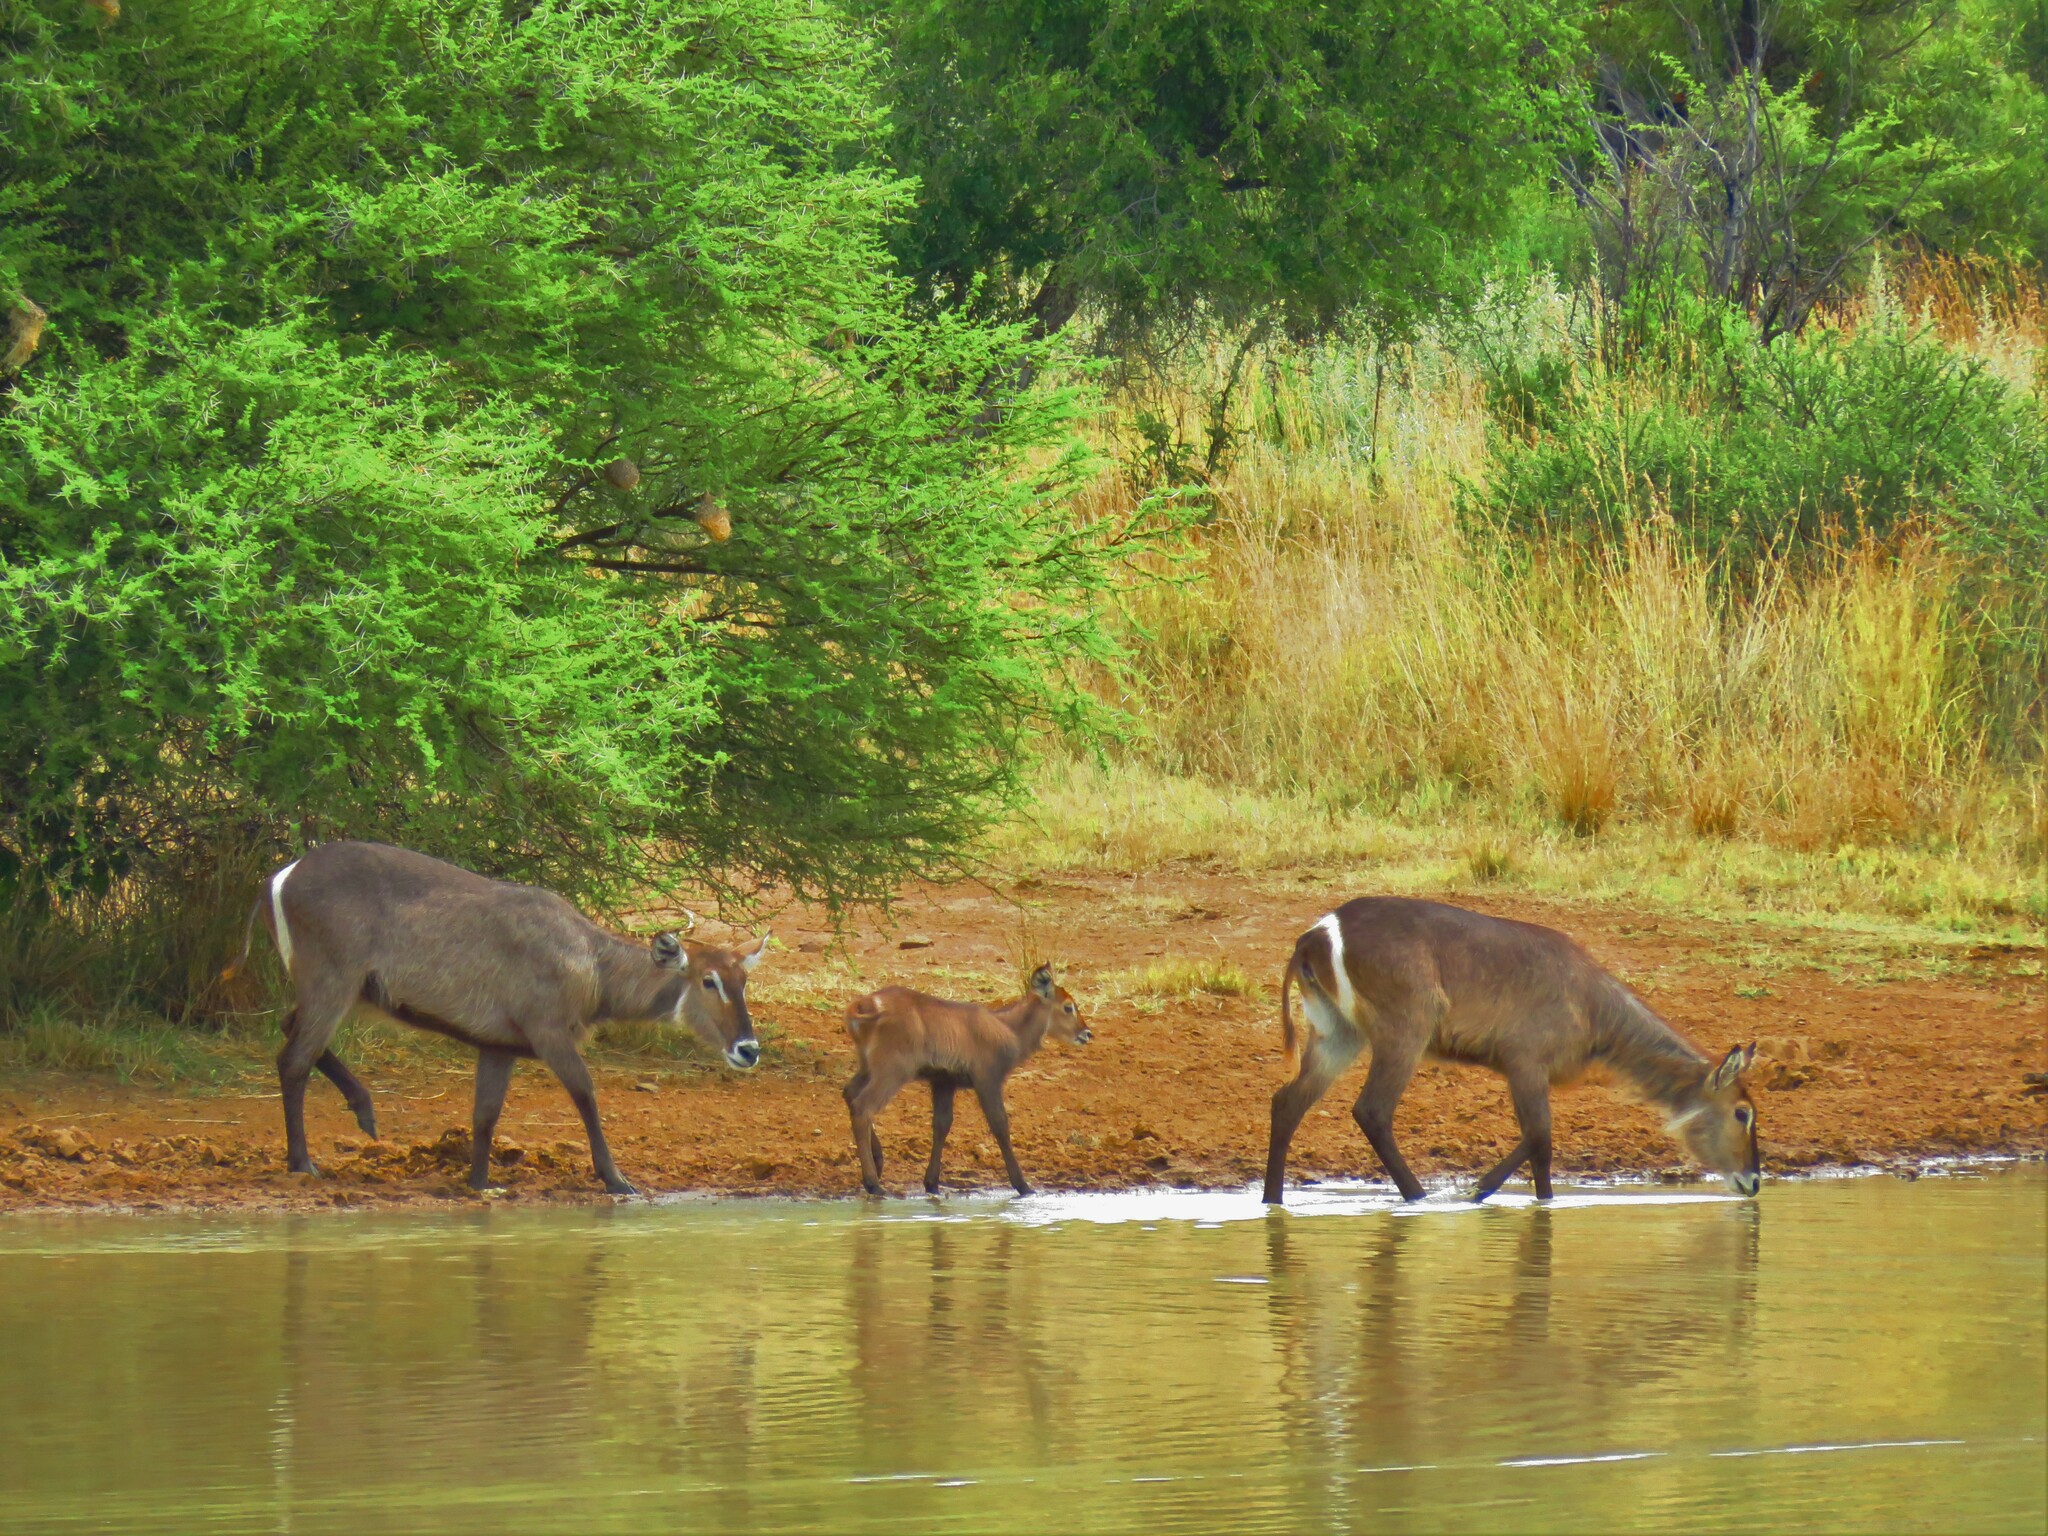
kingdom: Animalia
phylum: Chordata
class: Mammalia
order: Artiodactyla
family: Bovidae
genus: Kobus
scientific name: Kobus ellipsiprymnus
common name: Waterbuck
